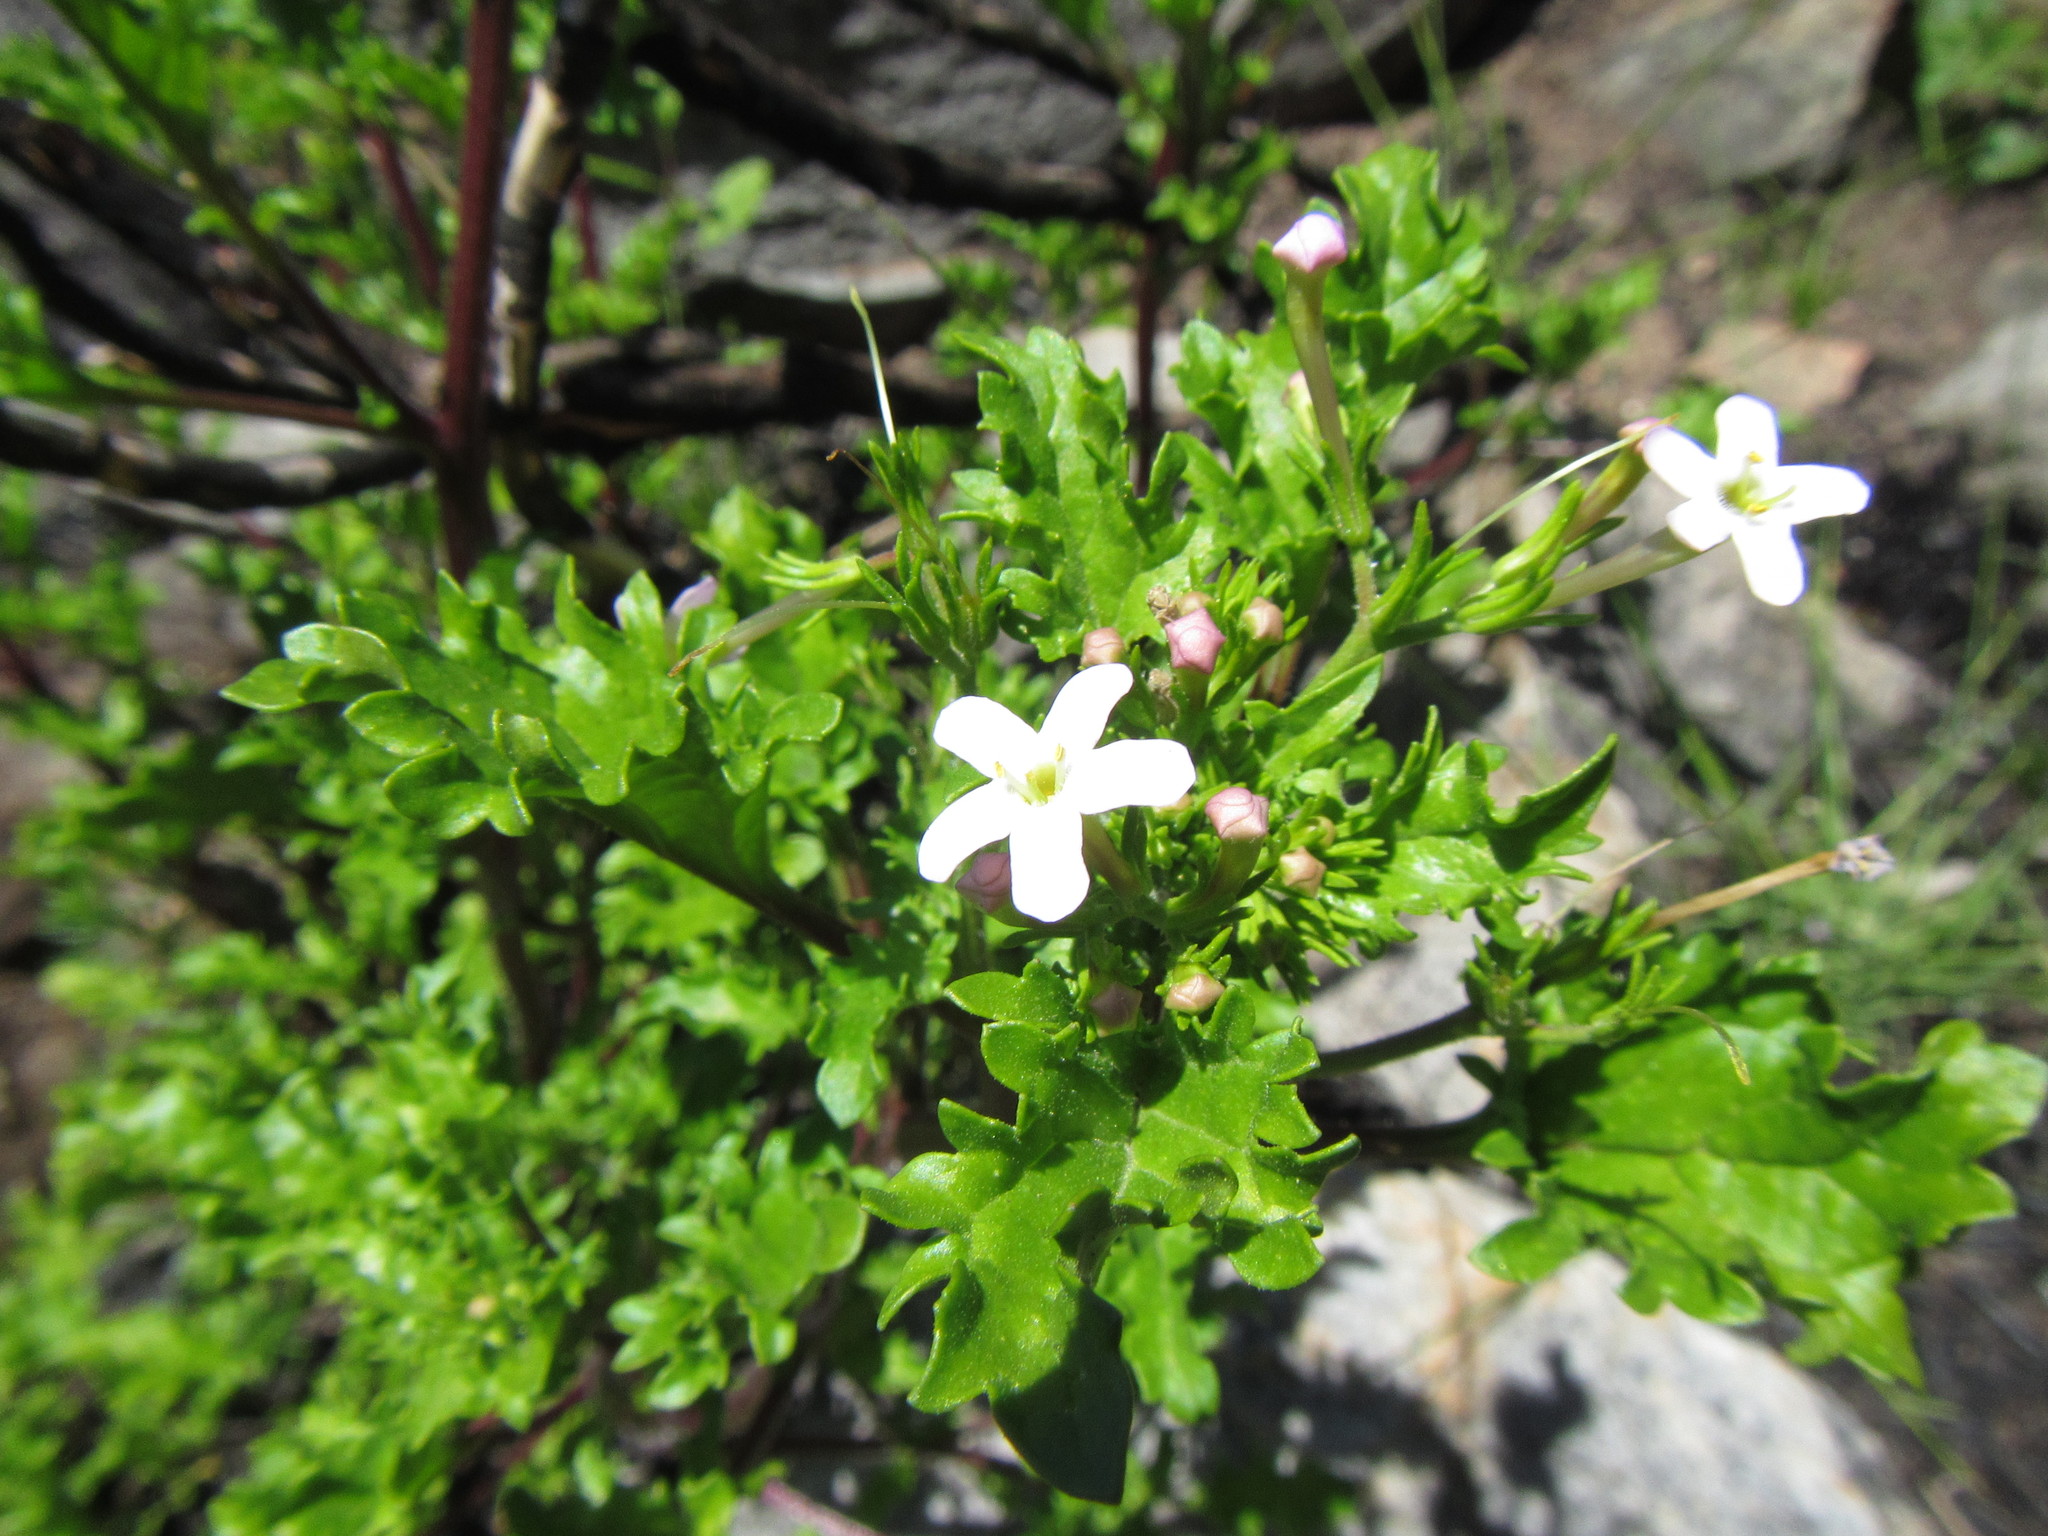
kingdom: Plantae
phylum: Tracheophyta
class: Magnoliopsida
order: Lamiales
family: Scrophulariaceae
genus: Sutera
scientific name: Sutera foetida
